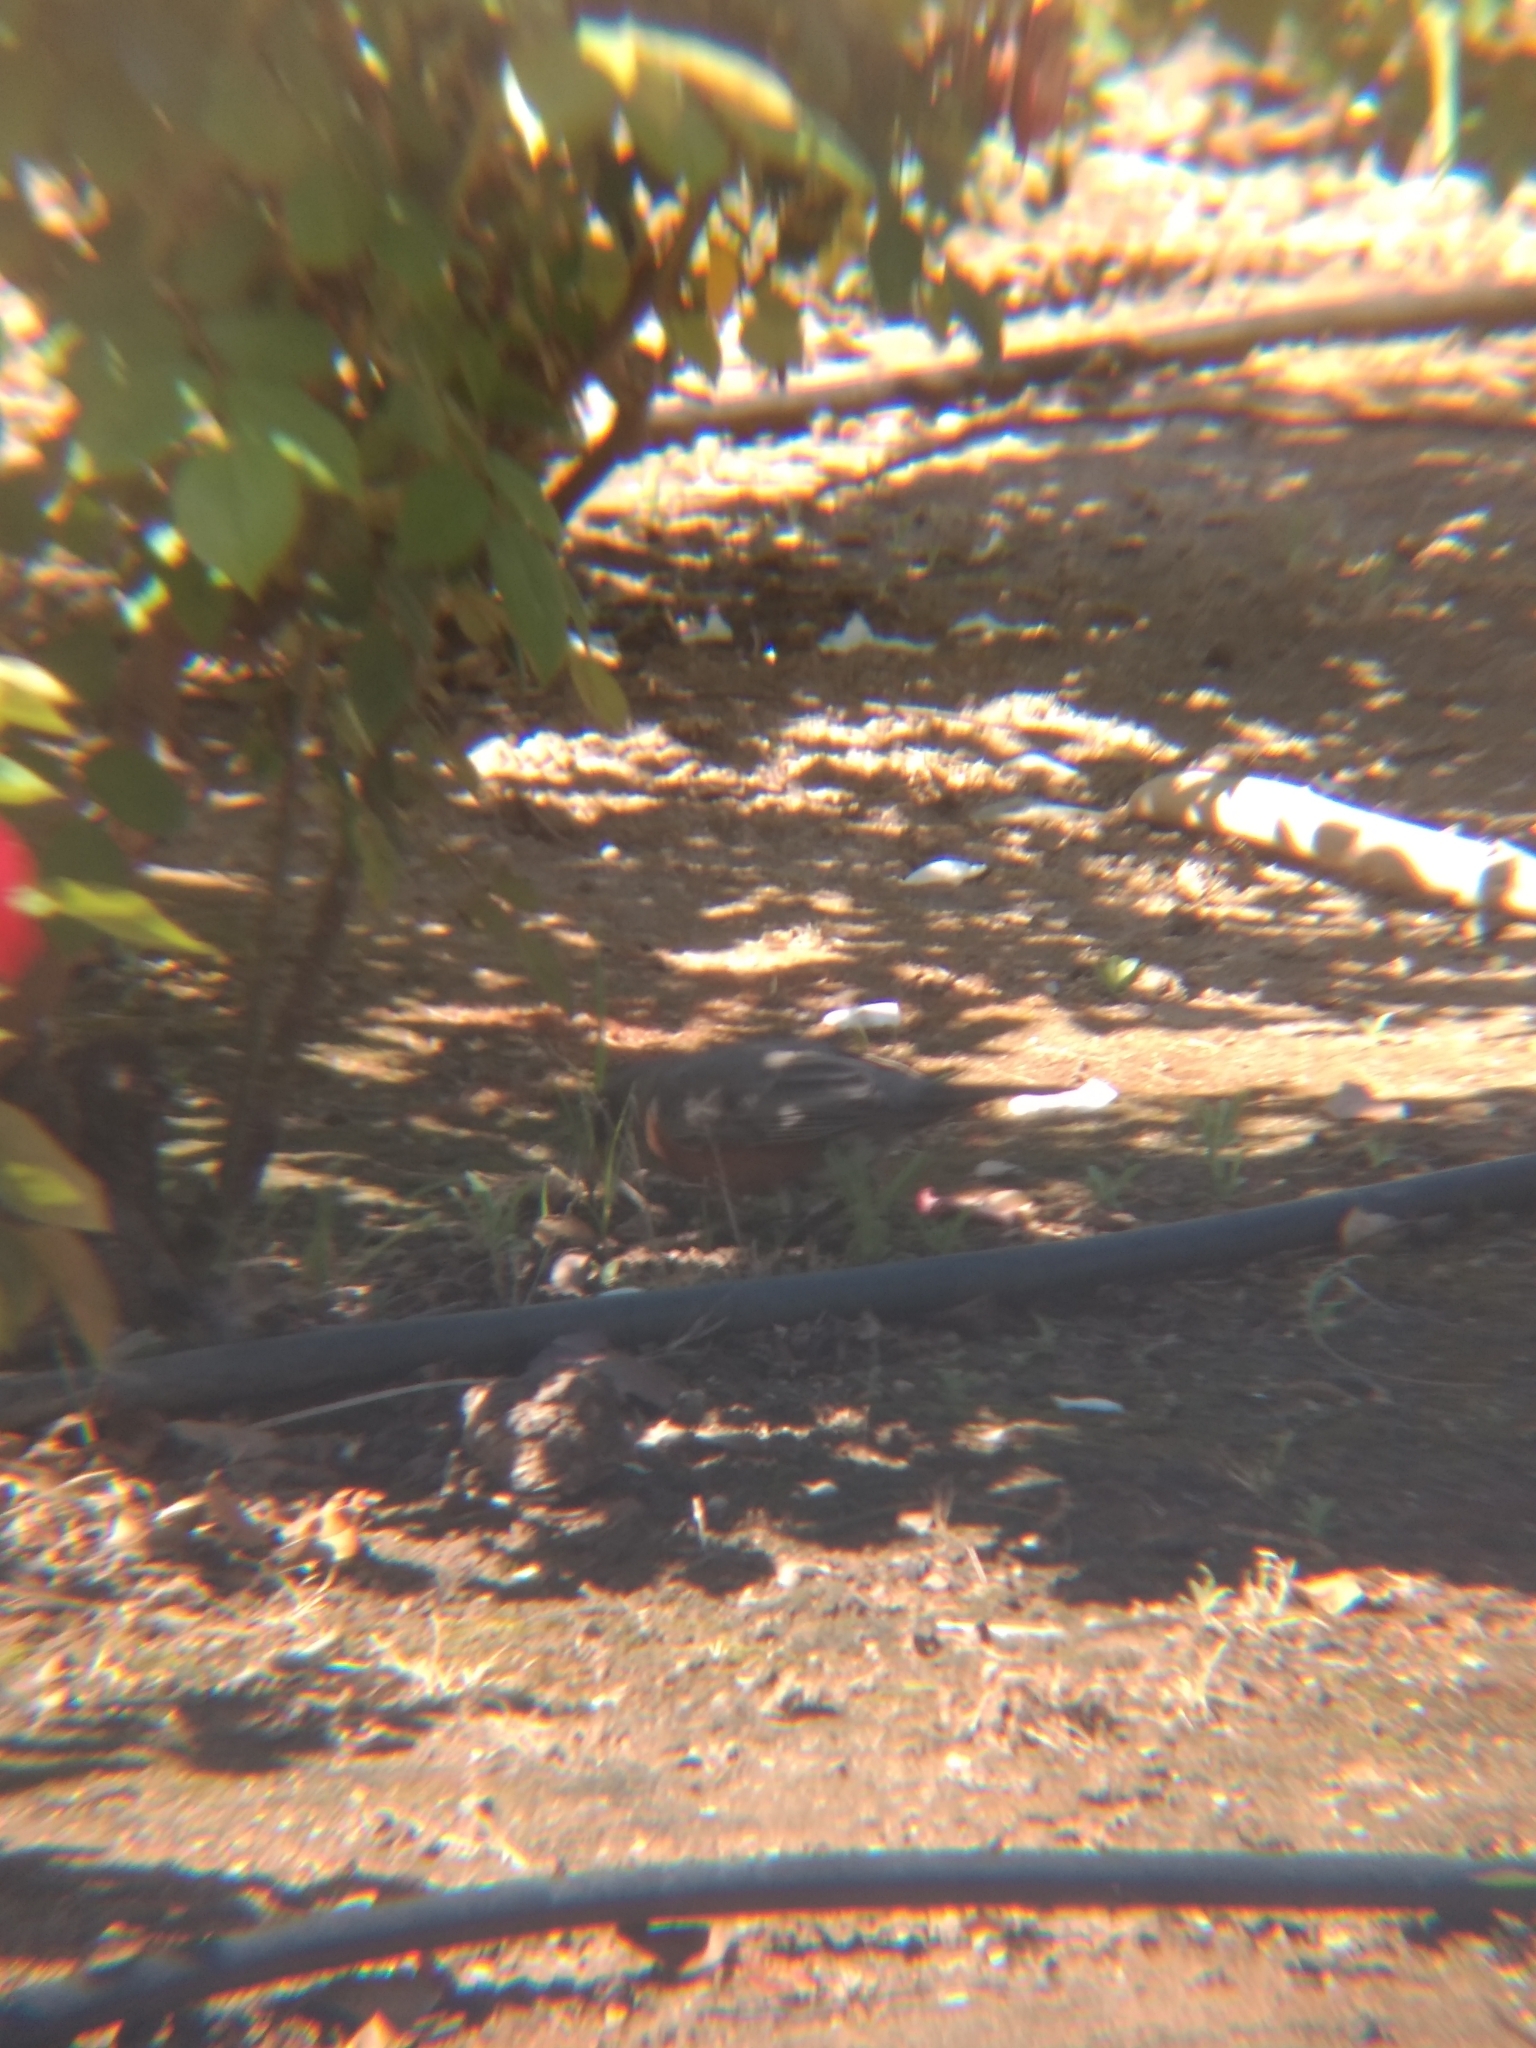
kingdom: Animalia
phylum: Chordata
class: Aves
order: Passeriformes
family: Turdidae
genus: Turdus
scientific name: Turdus migratorius
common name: American robin
